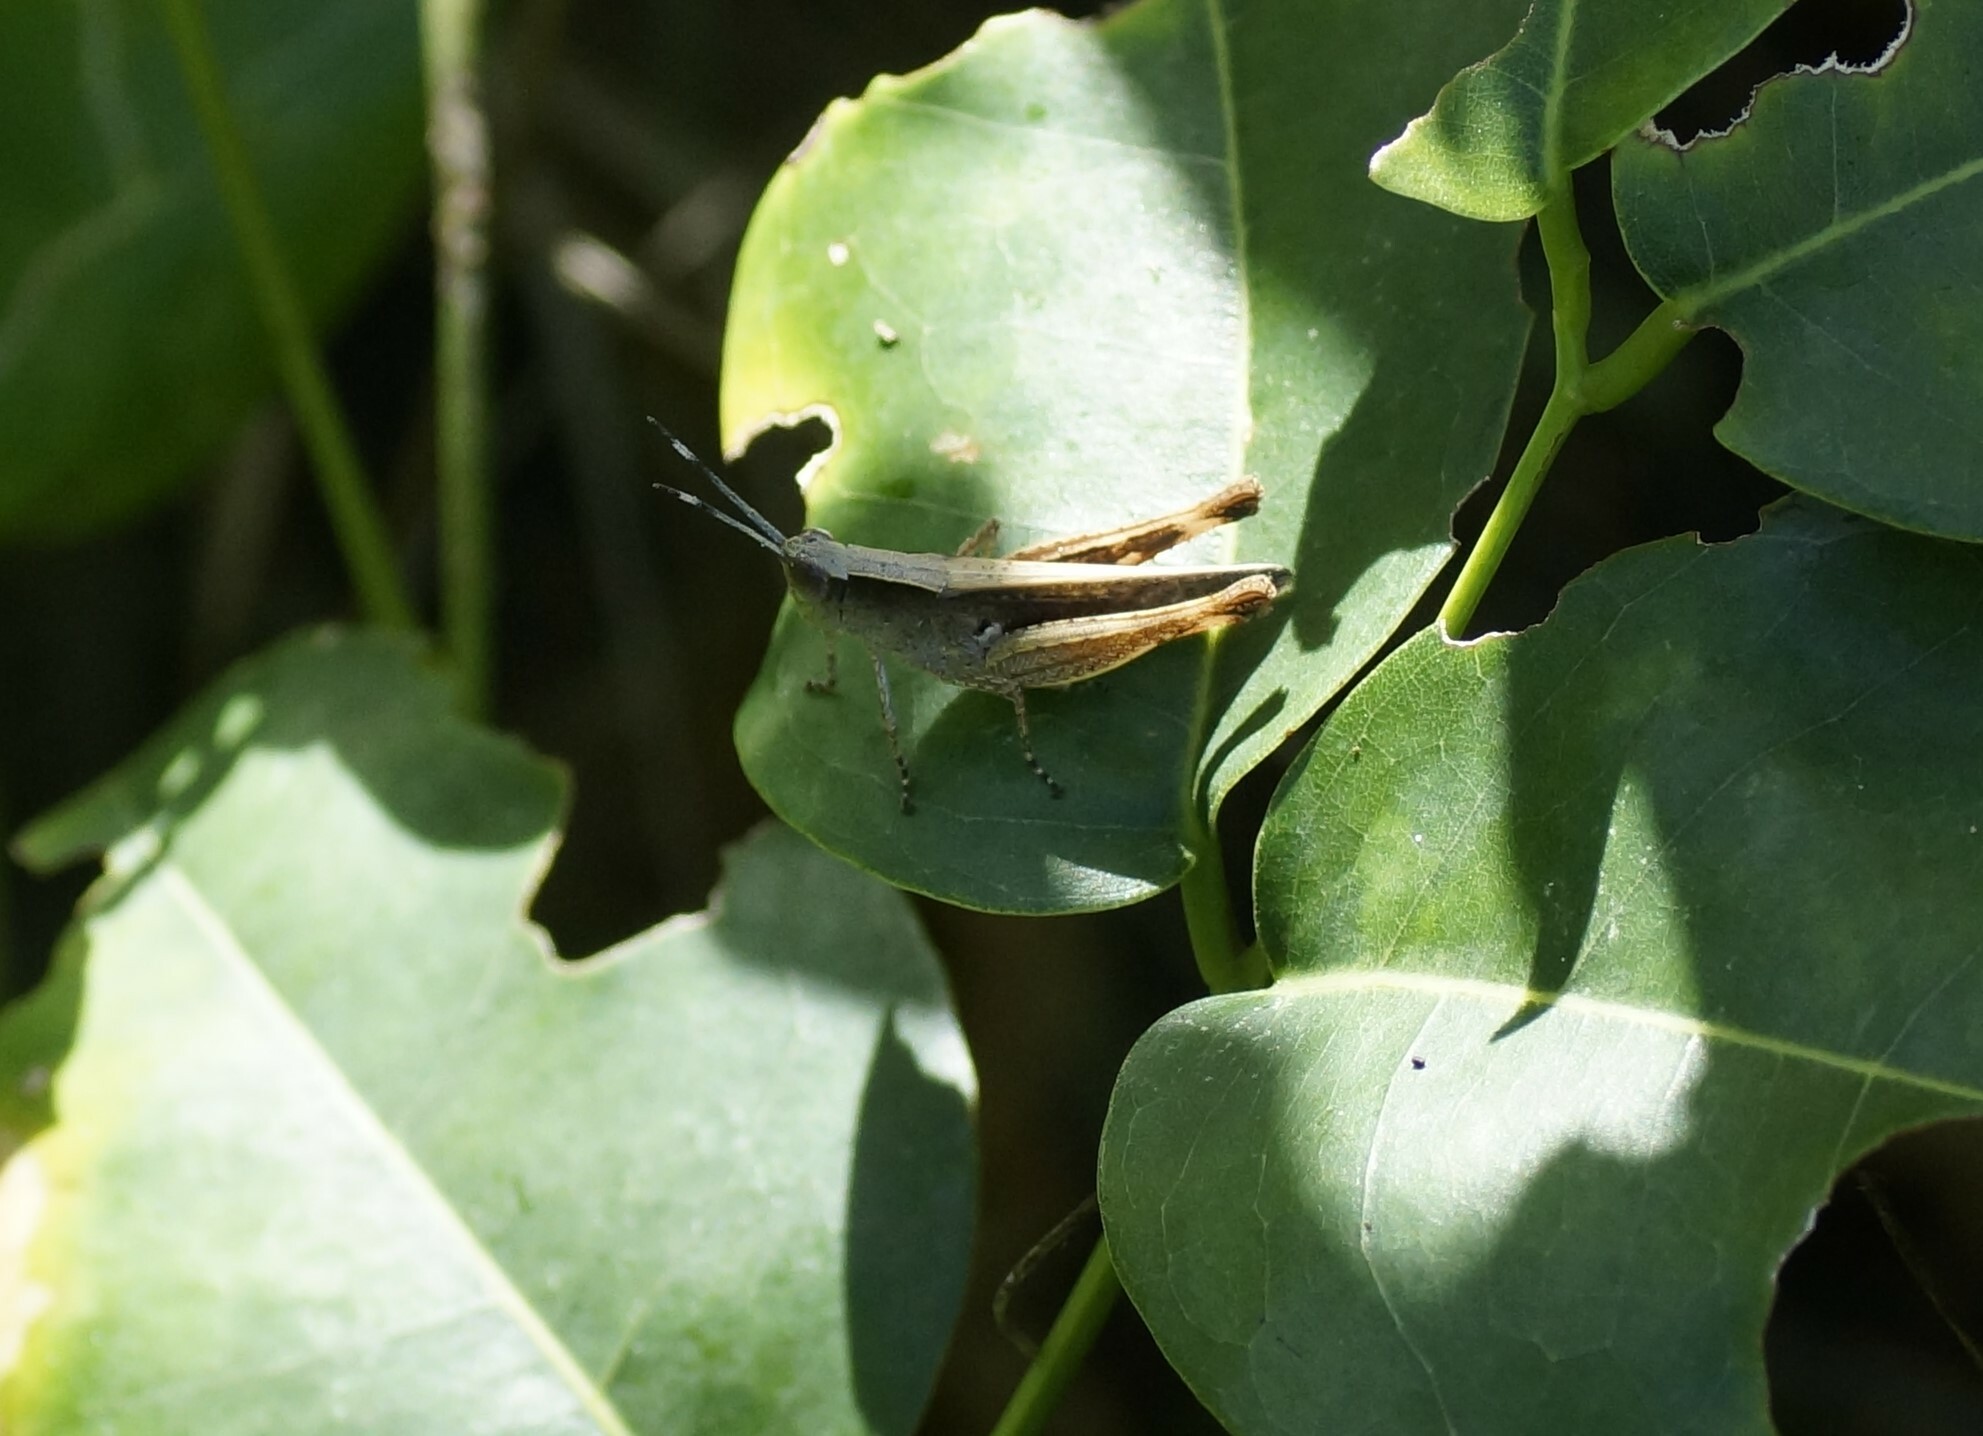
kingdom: Animalia
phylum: Arthropoda
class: Insecta
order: Orthoptera
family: Acrididae
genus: Rectitropis
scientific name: Rectitropis australis
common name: Queensland white-tips
